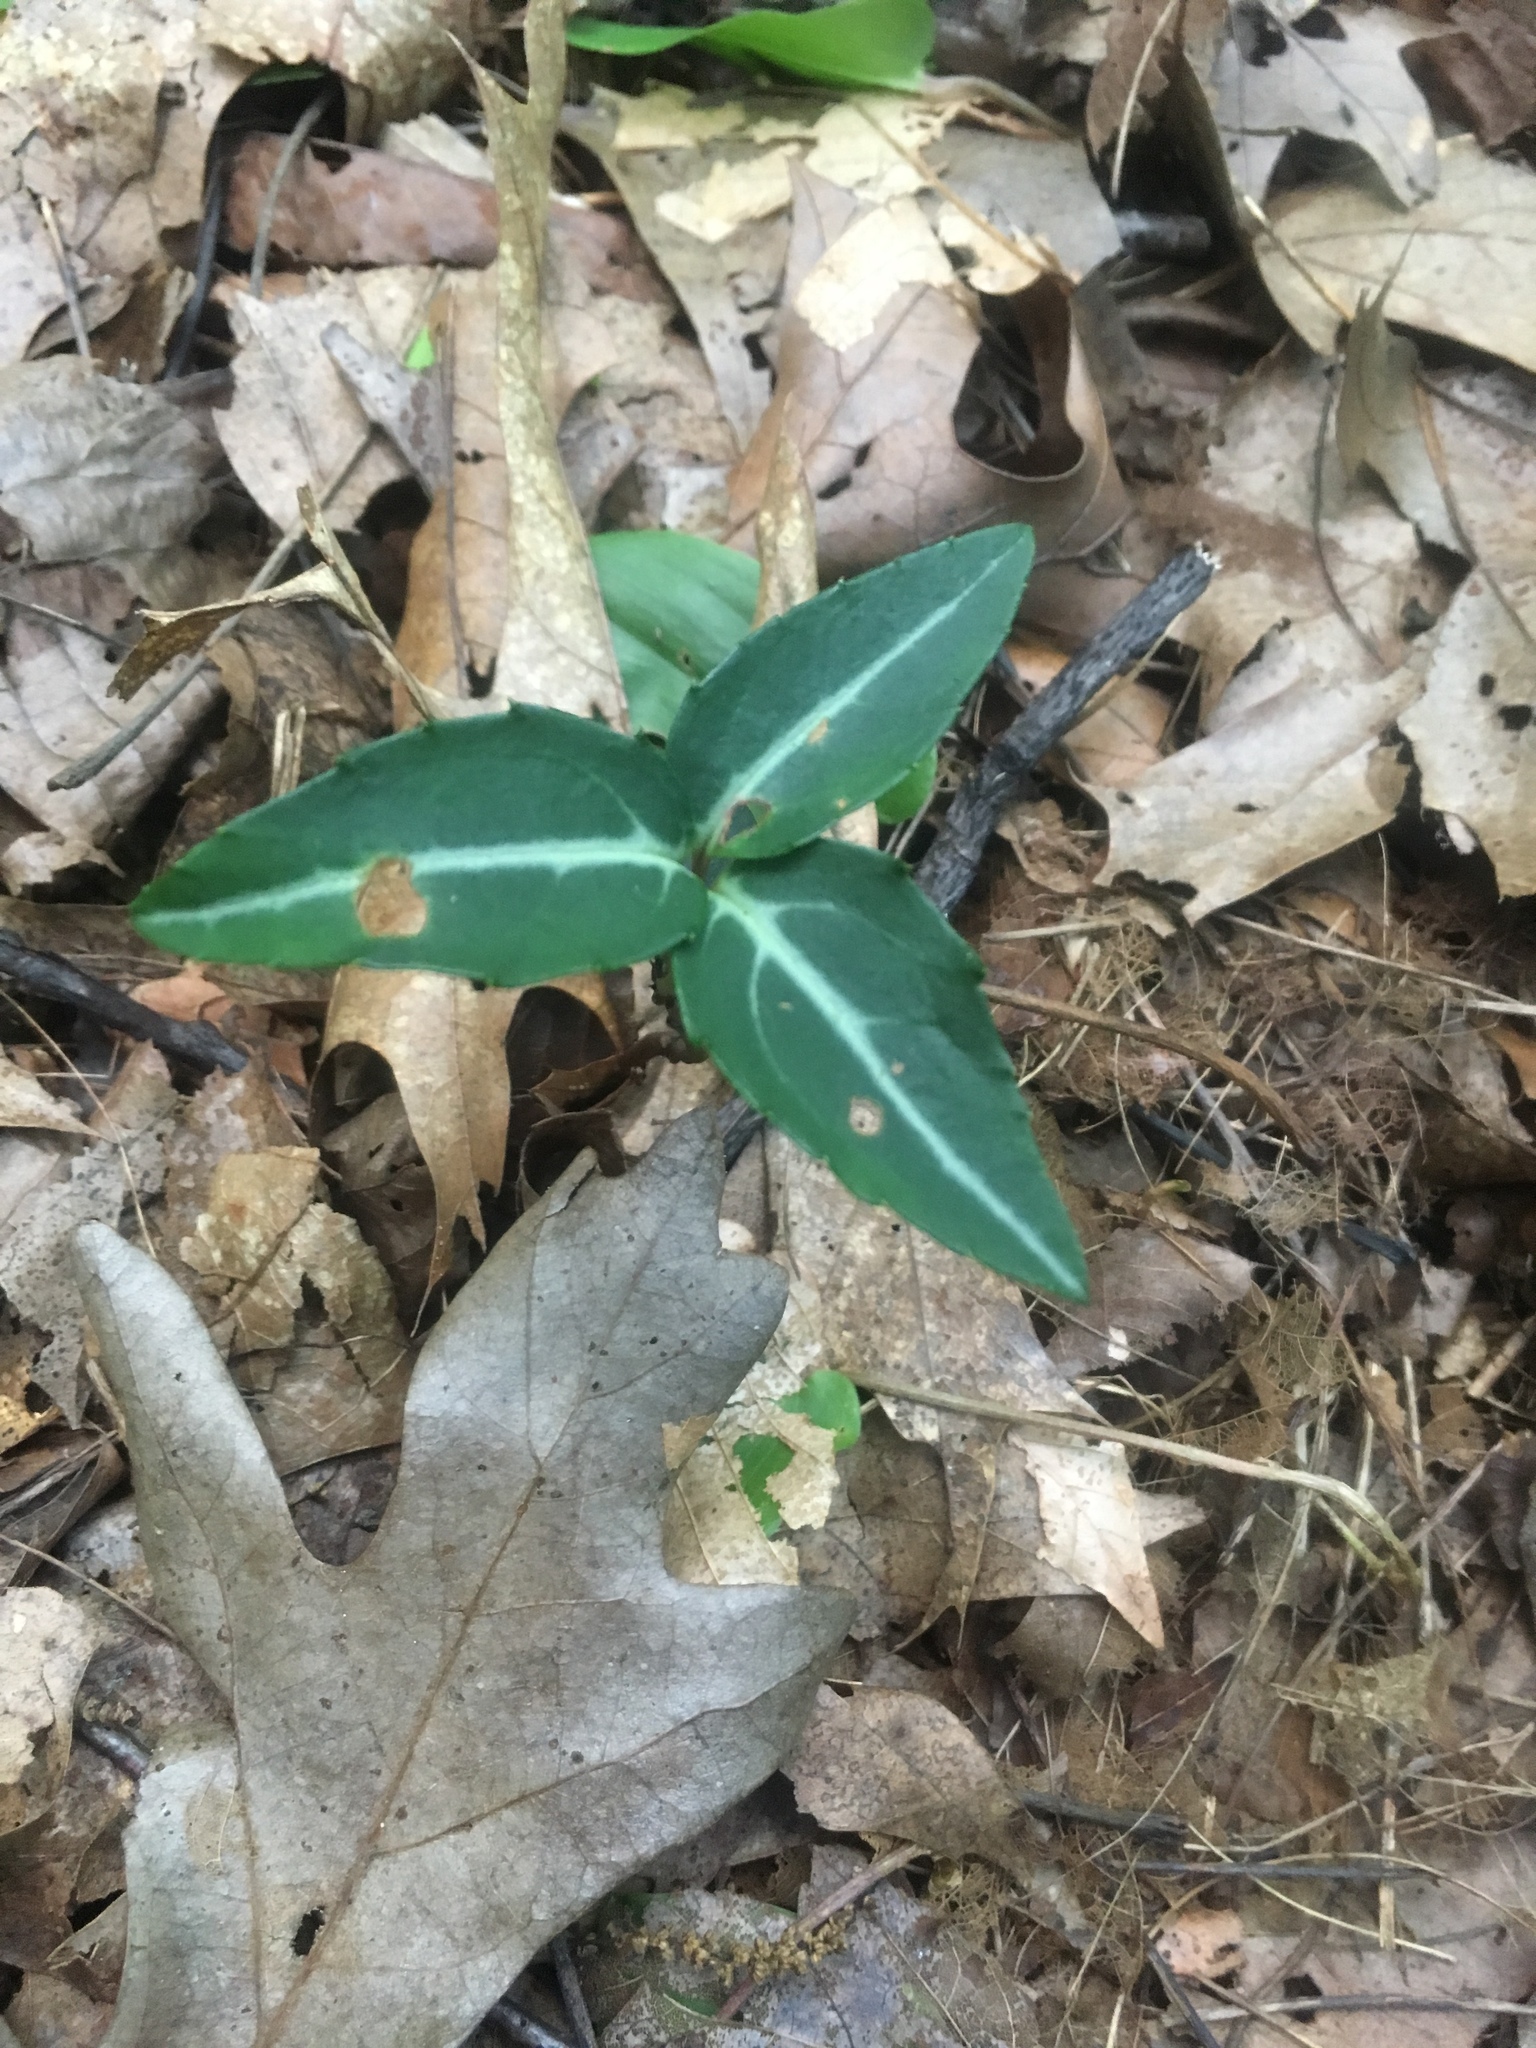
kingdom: Plantae
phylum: Tracheophyta
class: Magnoliopsida
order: Ericales
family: Ericaceae
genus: Chimaphila
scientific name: Chimaphila maculata
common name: Spotted pipsissewa
